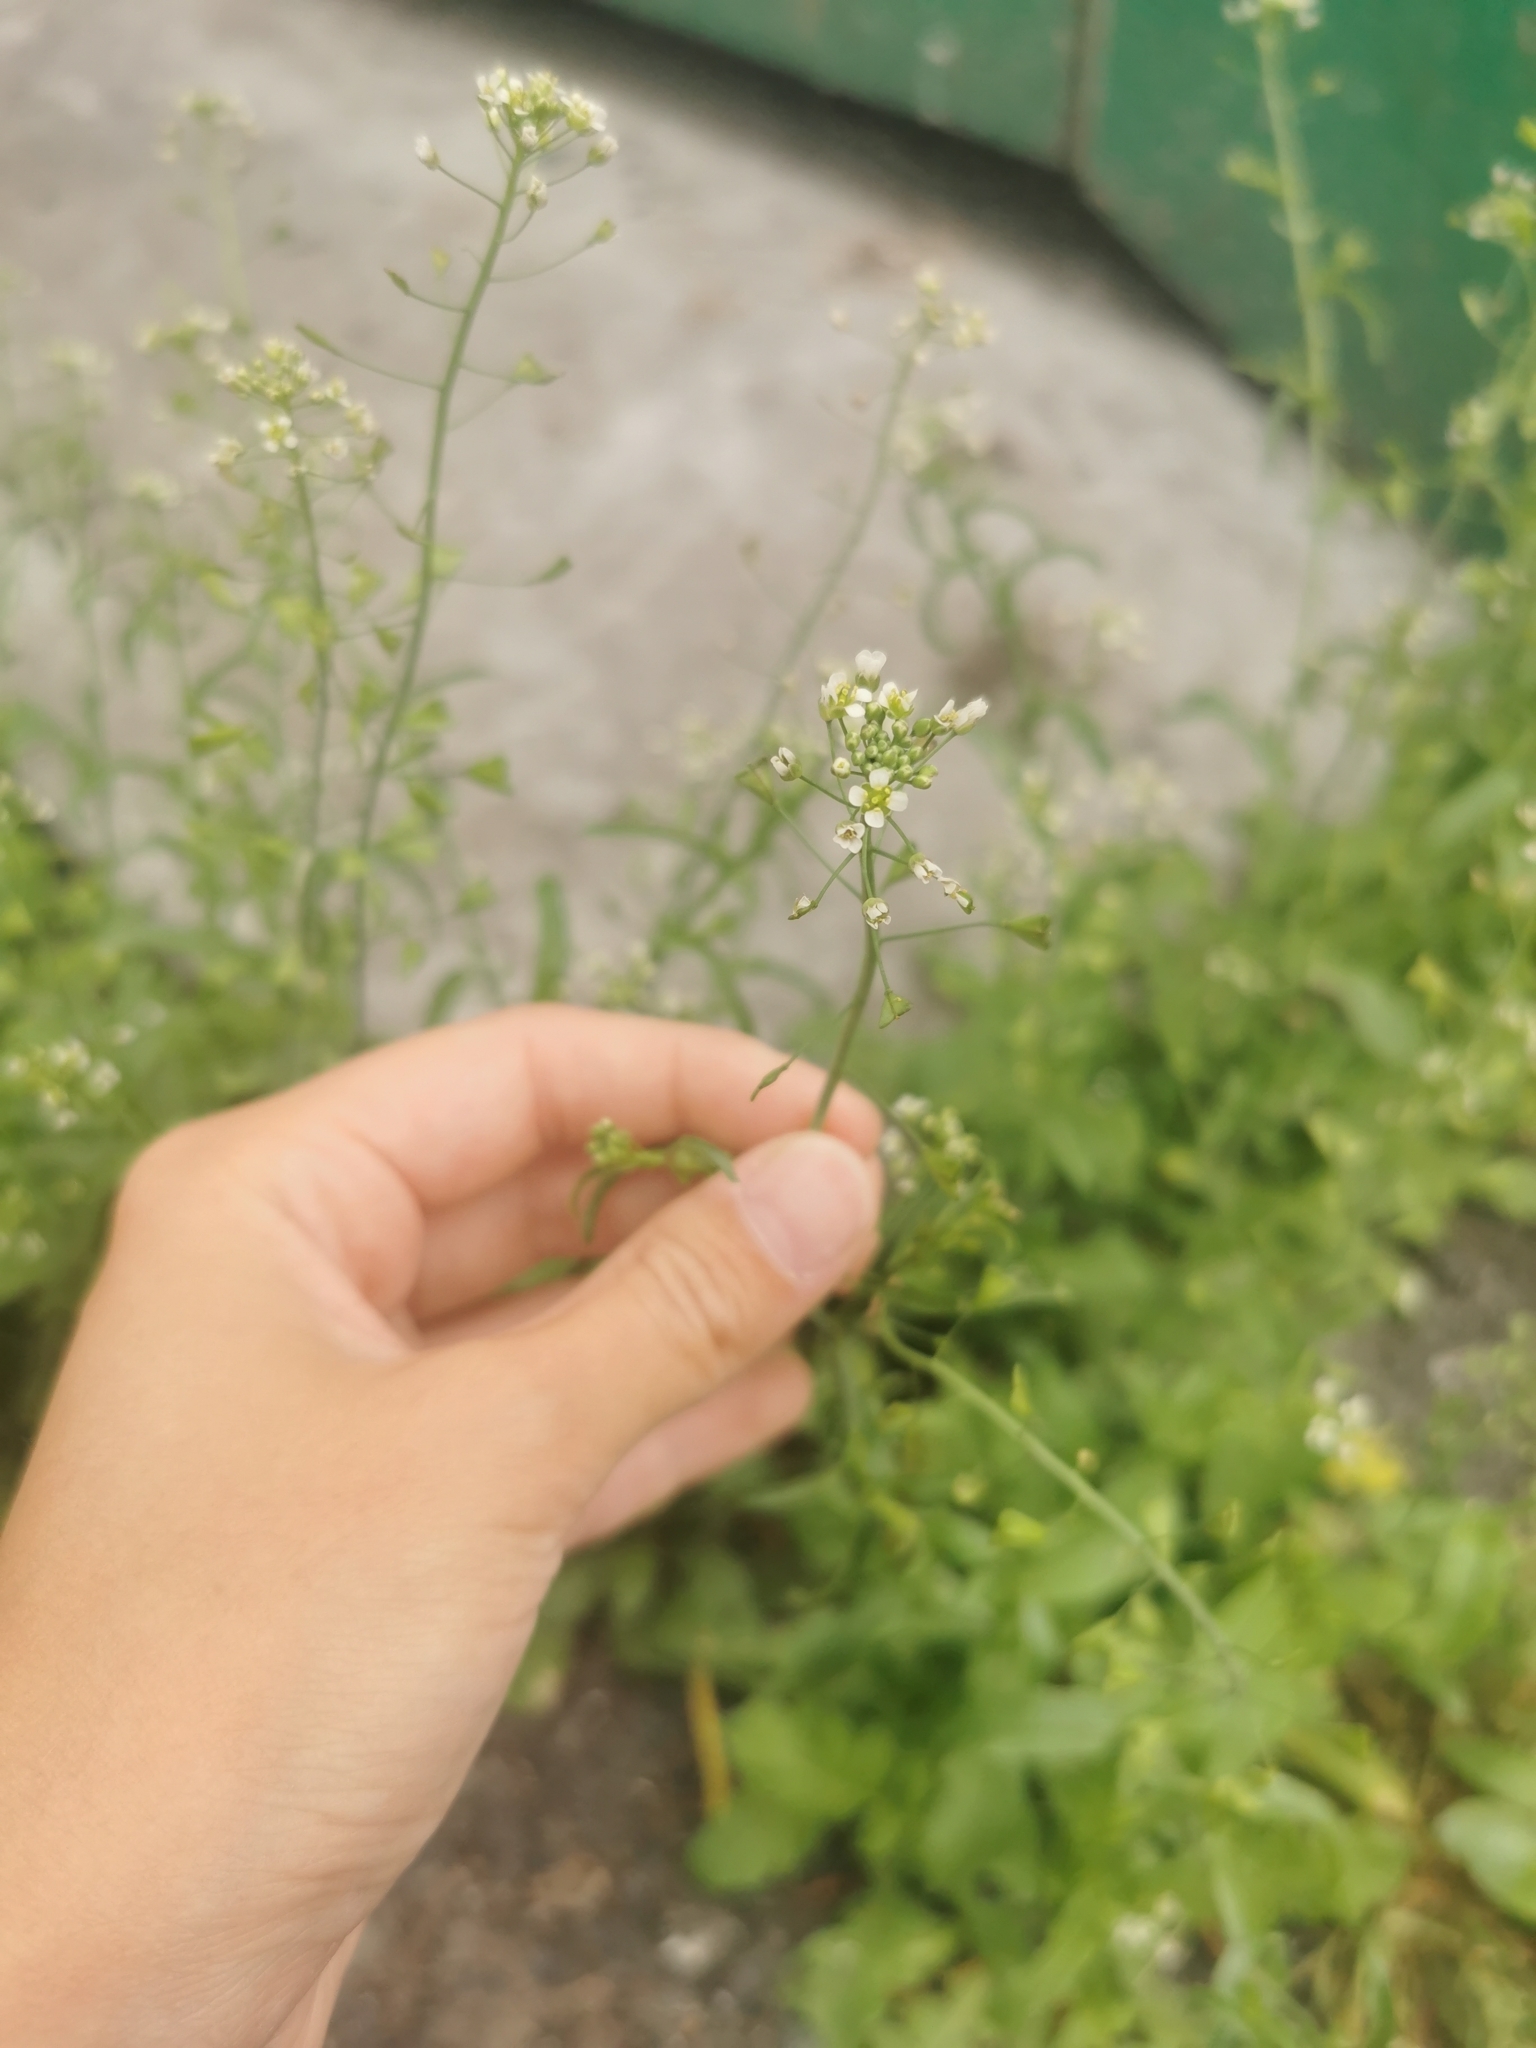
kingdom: Plantae
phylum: Tracheophyta
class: Magnoliopsida
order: Brassicales
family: Brassicaceae
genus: Capsella
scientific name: Capsella bursa-pastoris
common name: Shepherd's purse
